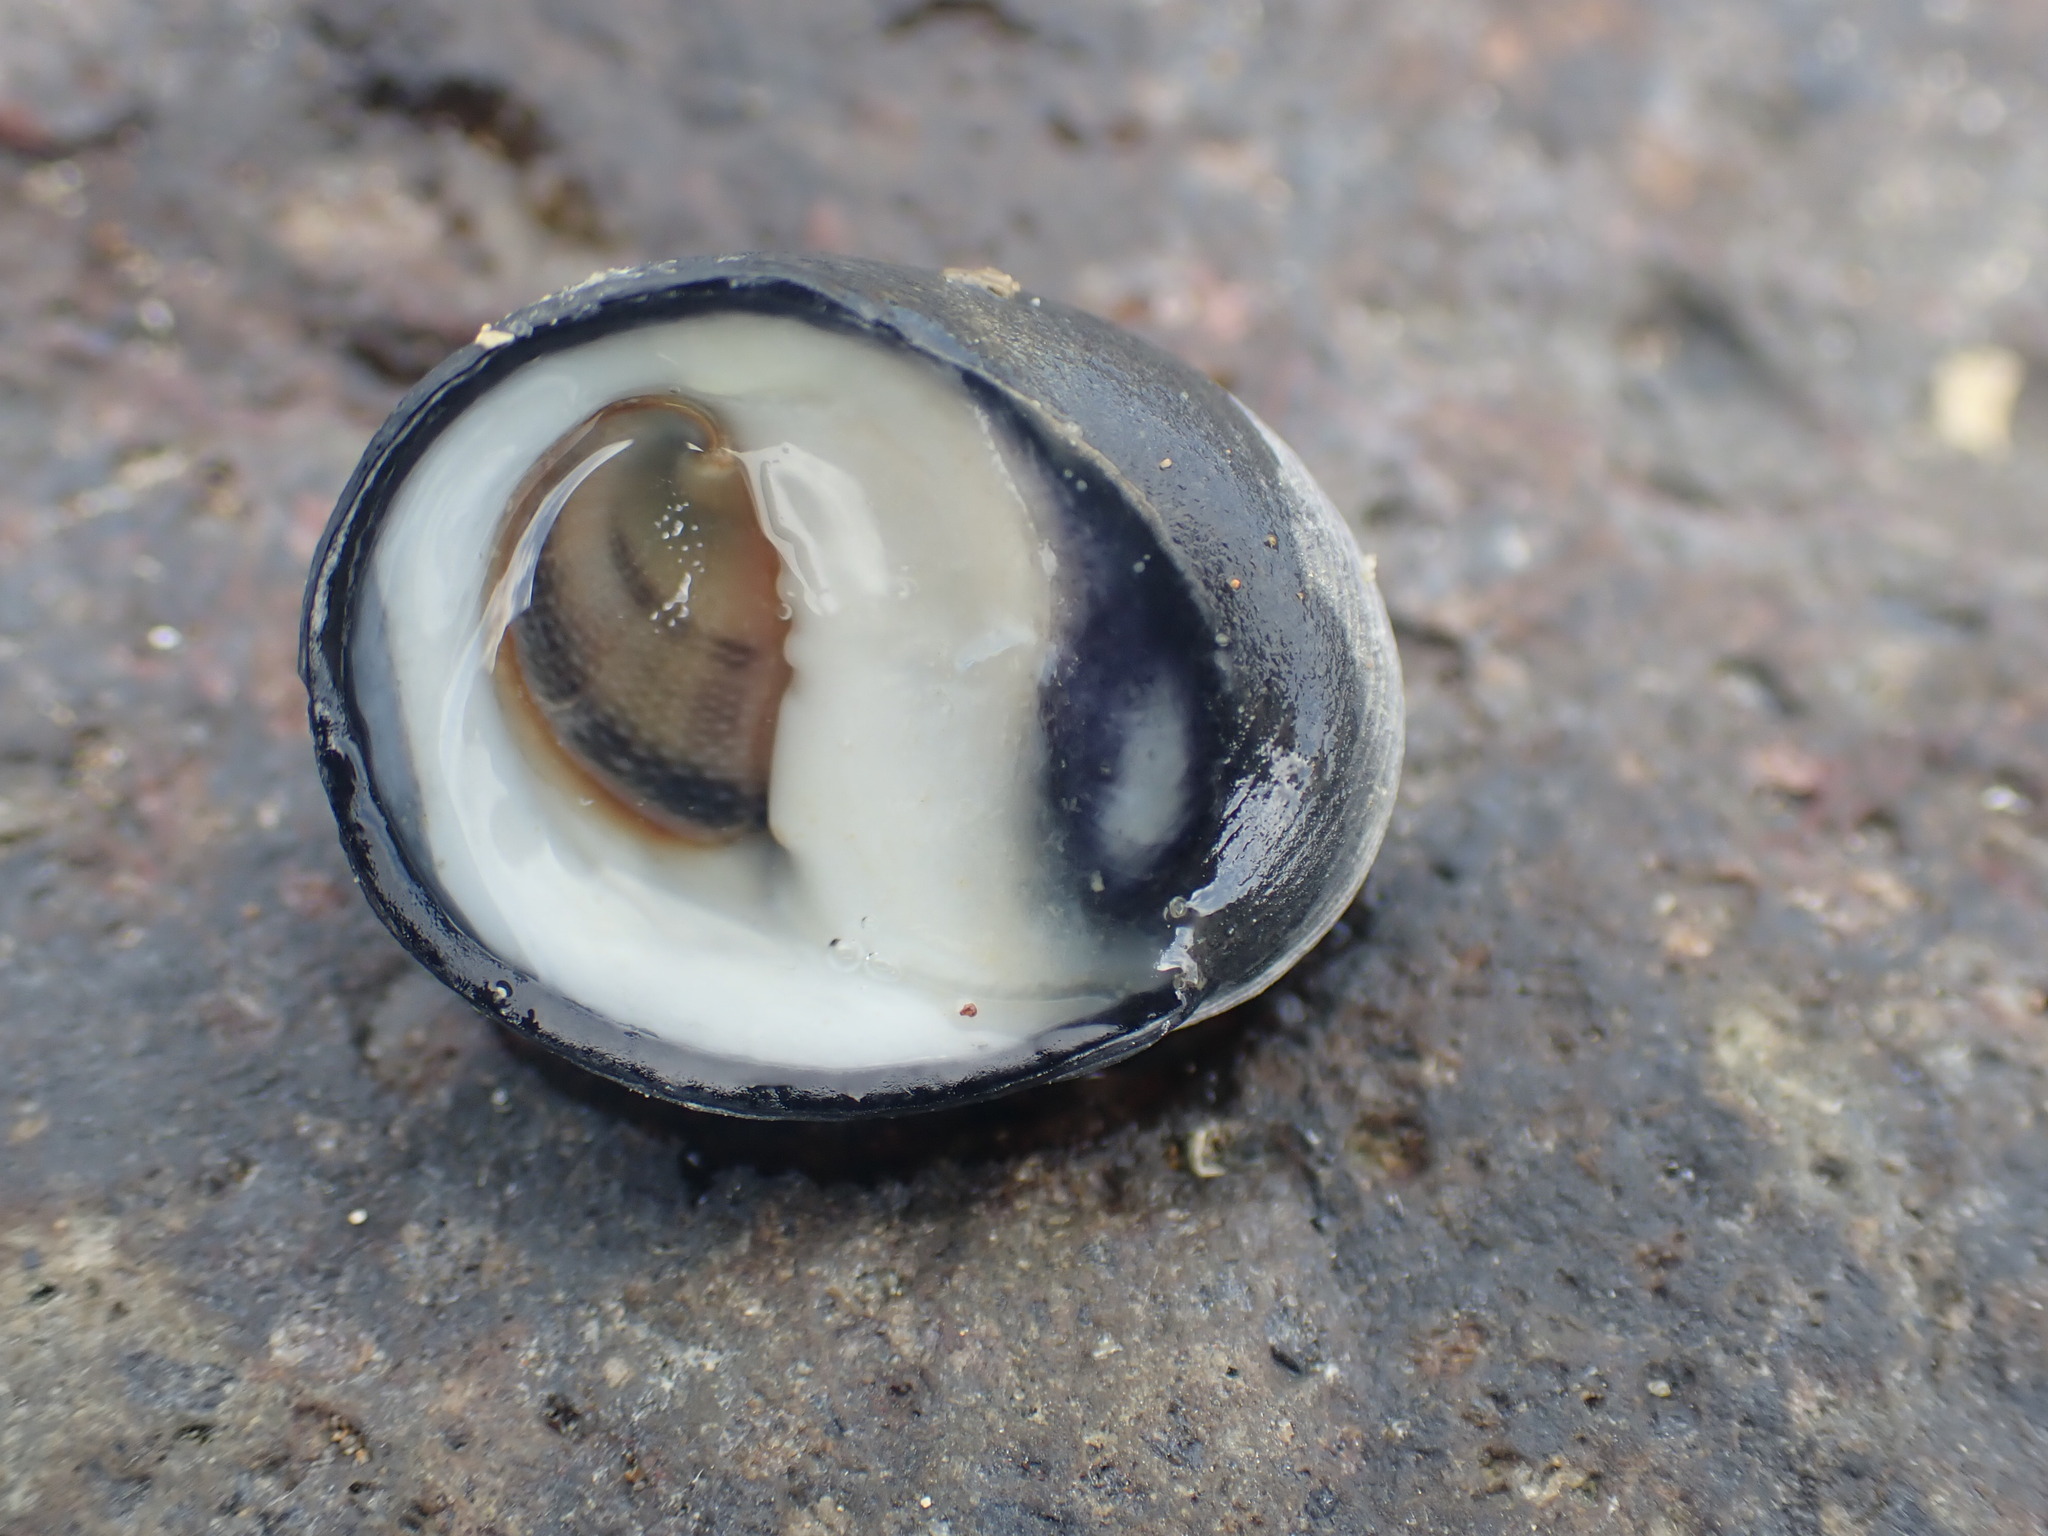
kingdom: Animalia
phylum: Mollusca
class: Gastropoda
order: Cycloneritida
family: Neritidae
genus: Nerita
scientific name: Nerita melanotragus
